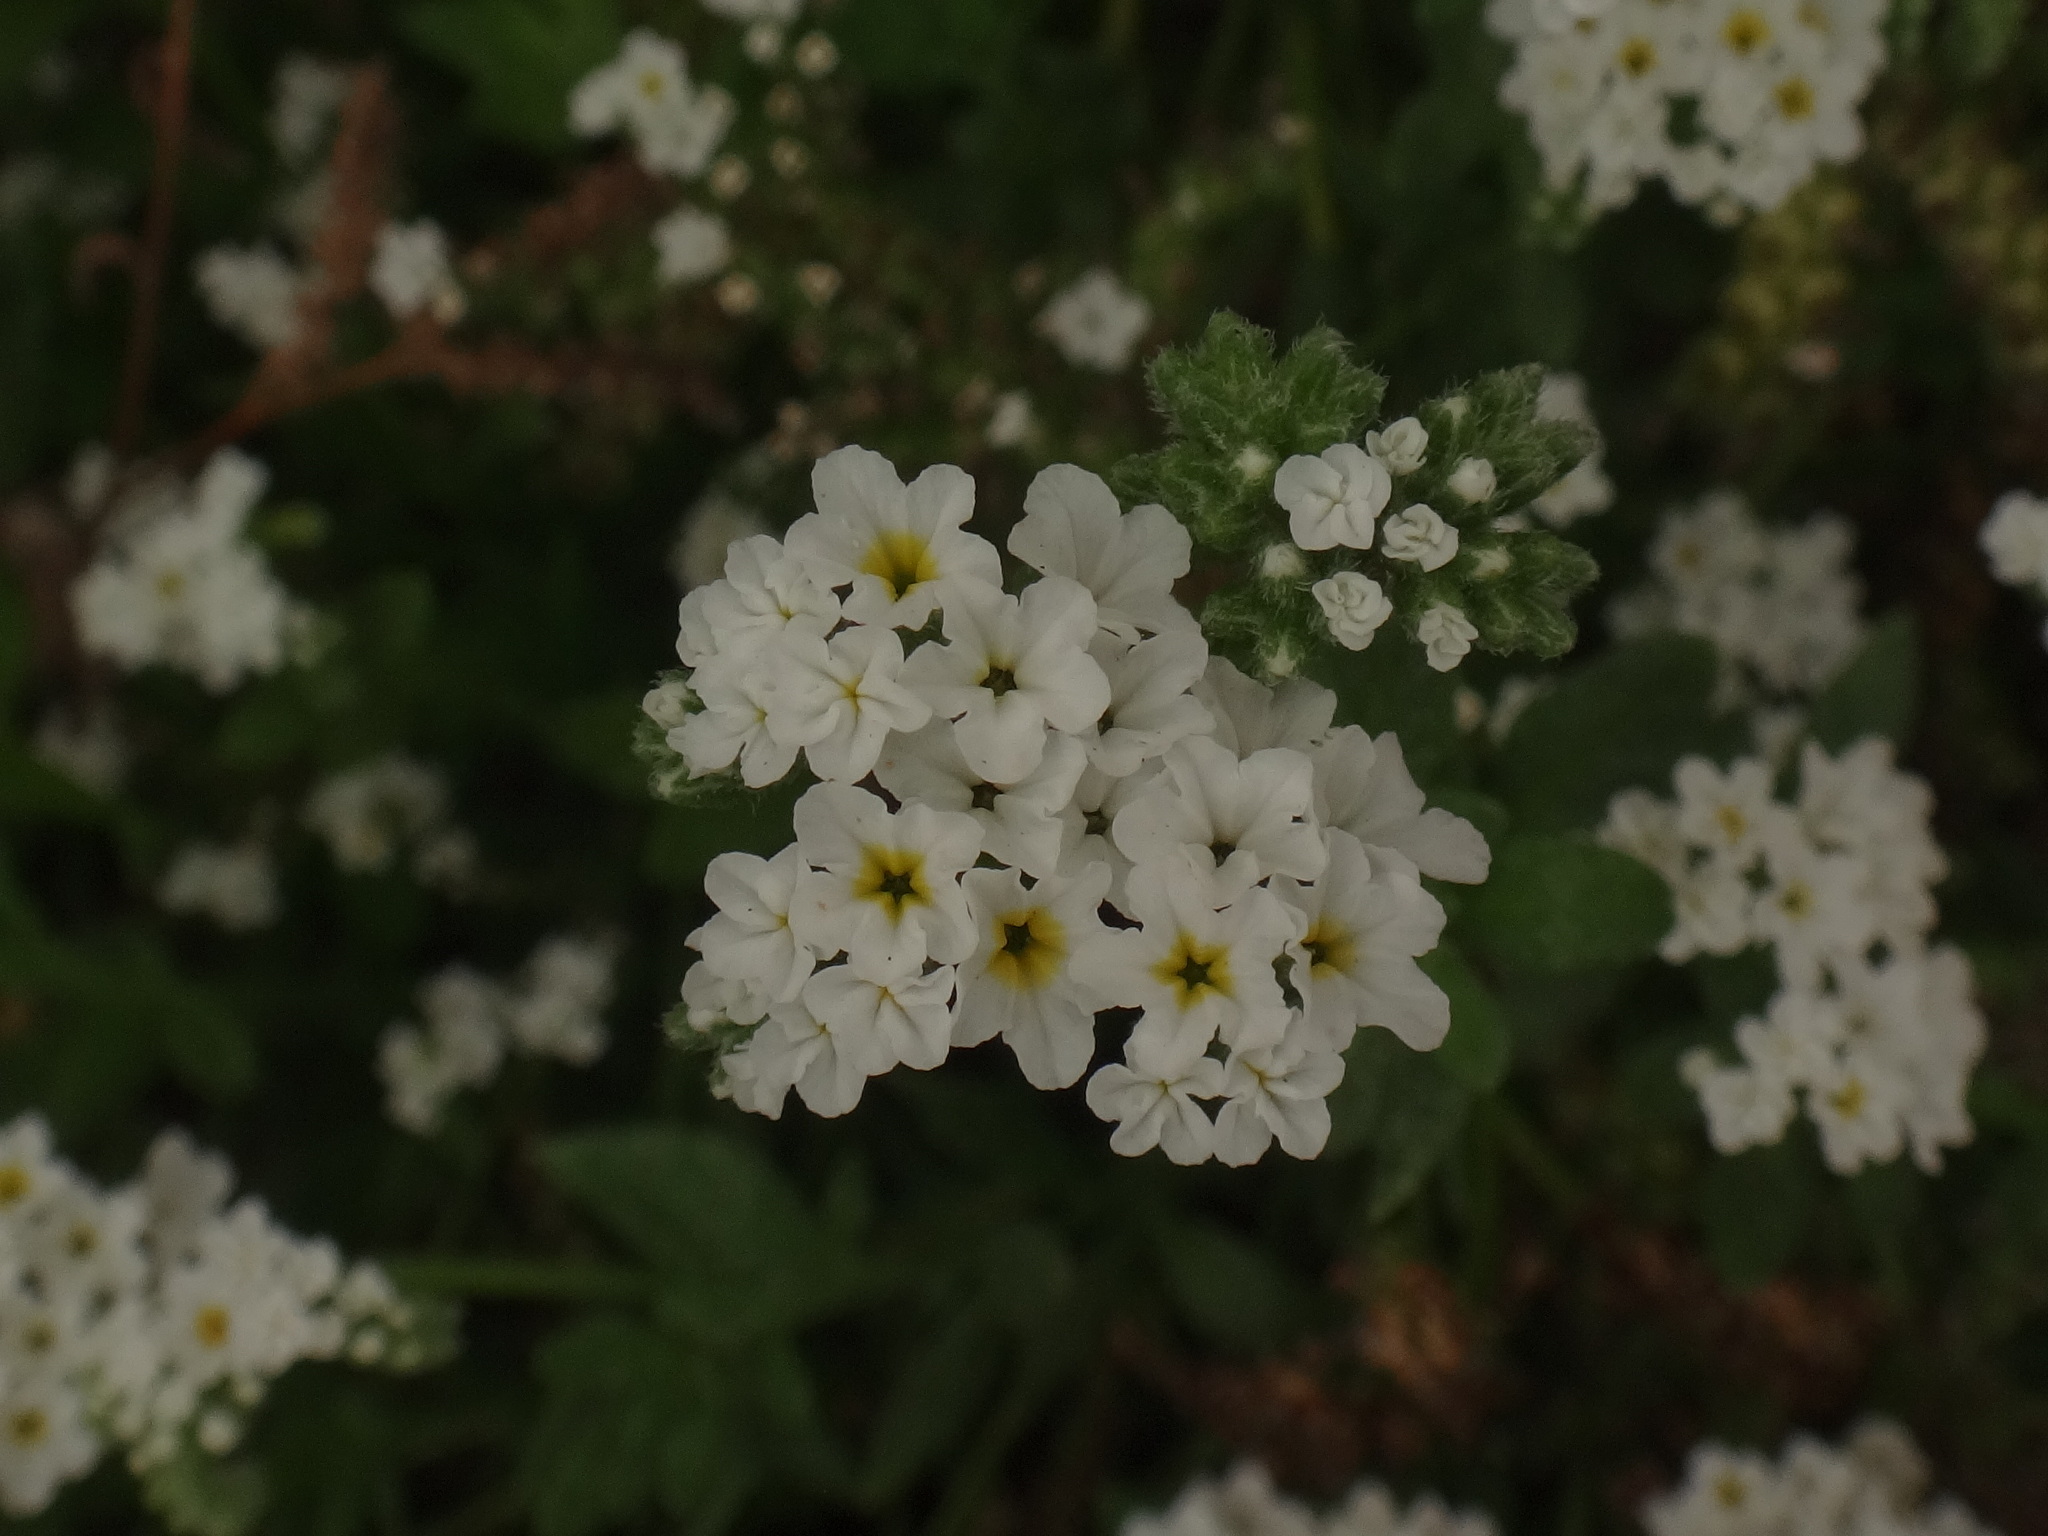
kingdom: Plantae
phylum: Tracheophyta
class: Magnoliopsida
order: Boraginales
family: Heliotropiaceae
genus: Heliotropium
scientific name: Heliotropium ramosissimum
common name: Wavy heliotrope
